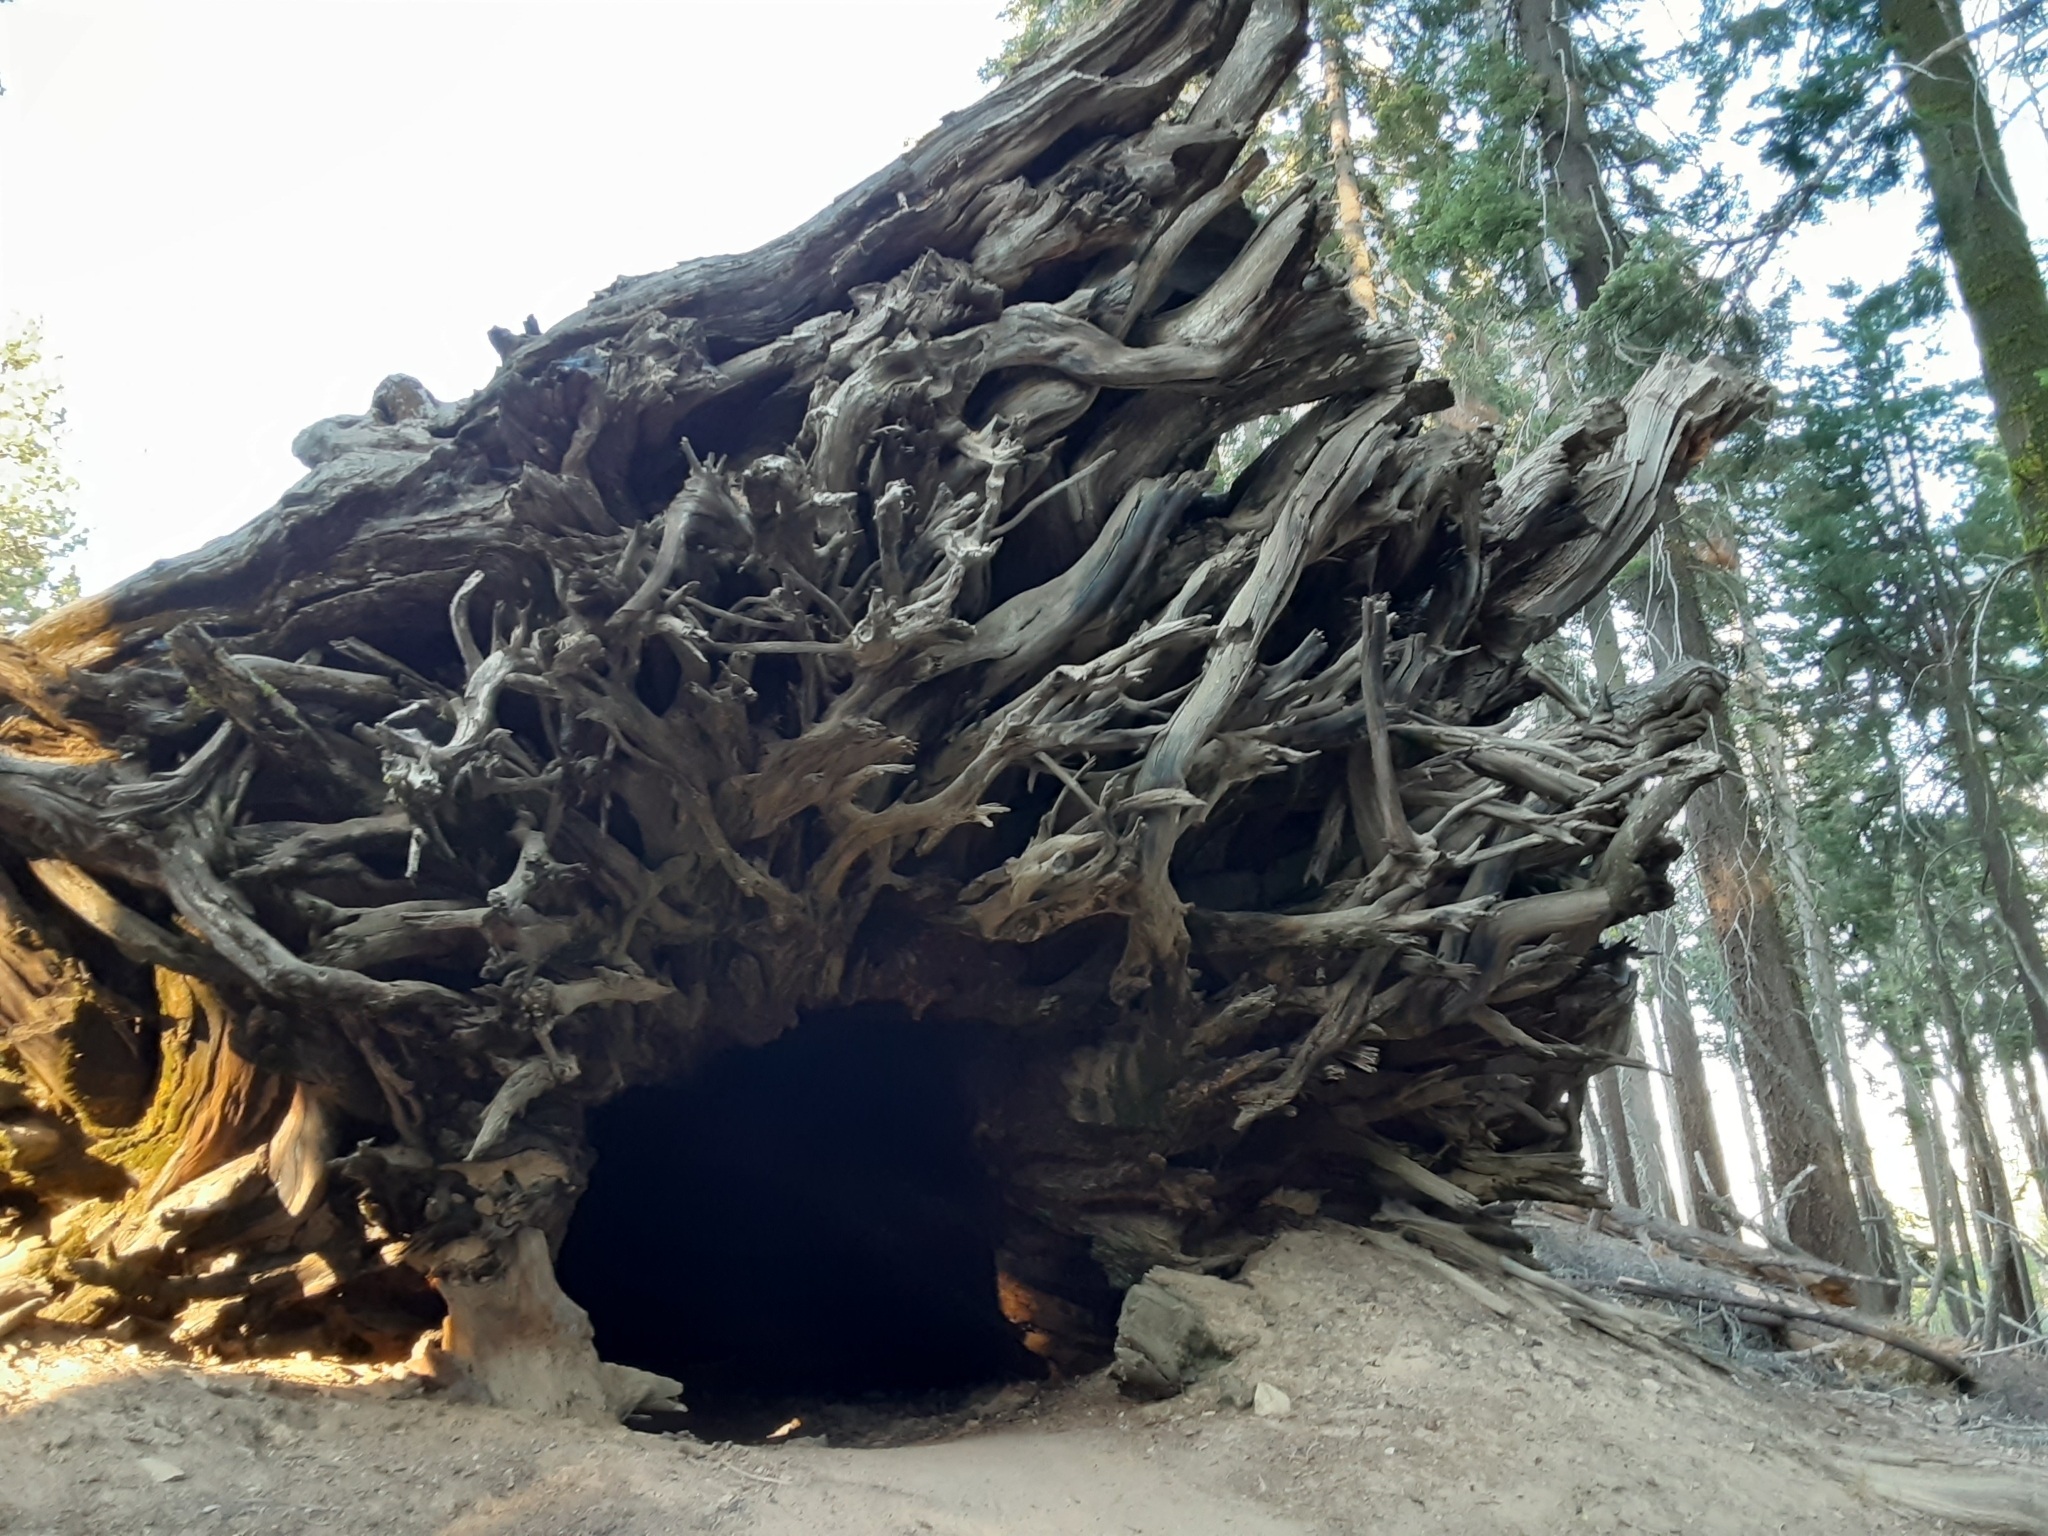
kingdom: Plantae
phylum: Tracheophyta
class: Pinopsida
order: Pinales
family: Cupressaceae
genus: Sequoiadendron
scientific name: Sequoiadendron giganteum
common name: Wellingtonia
